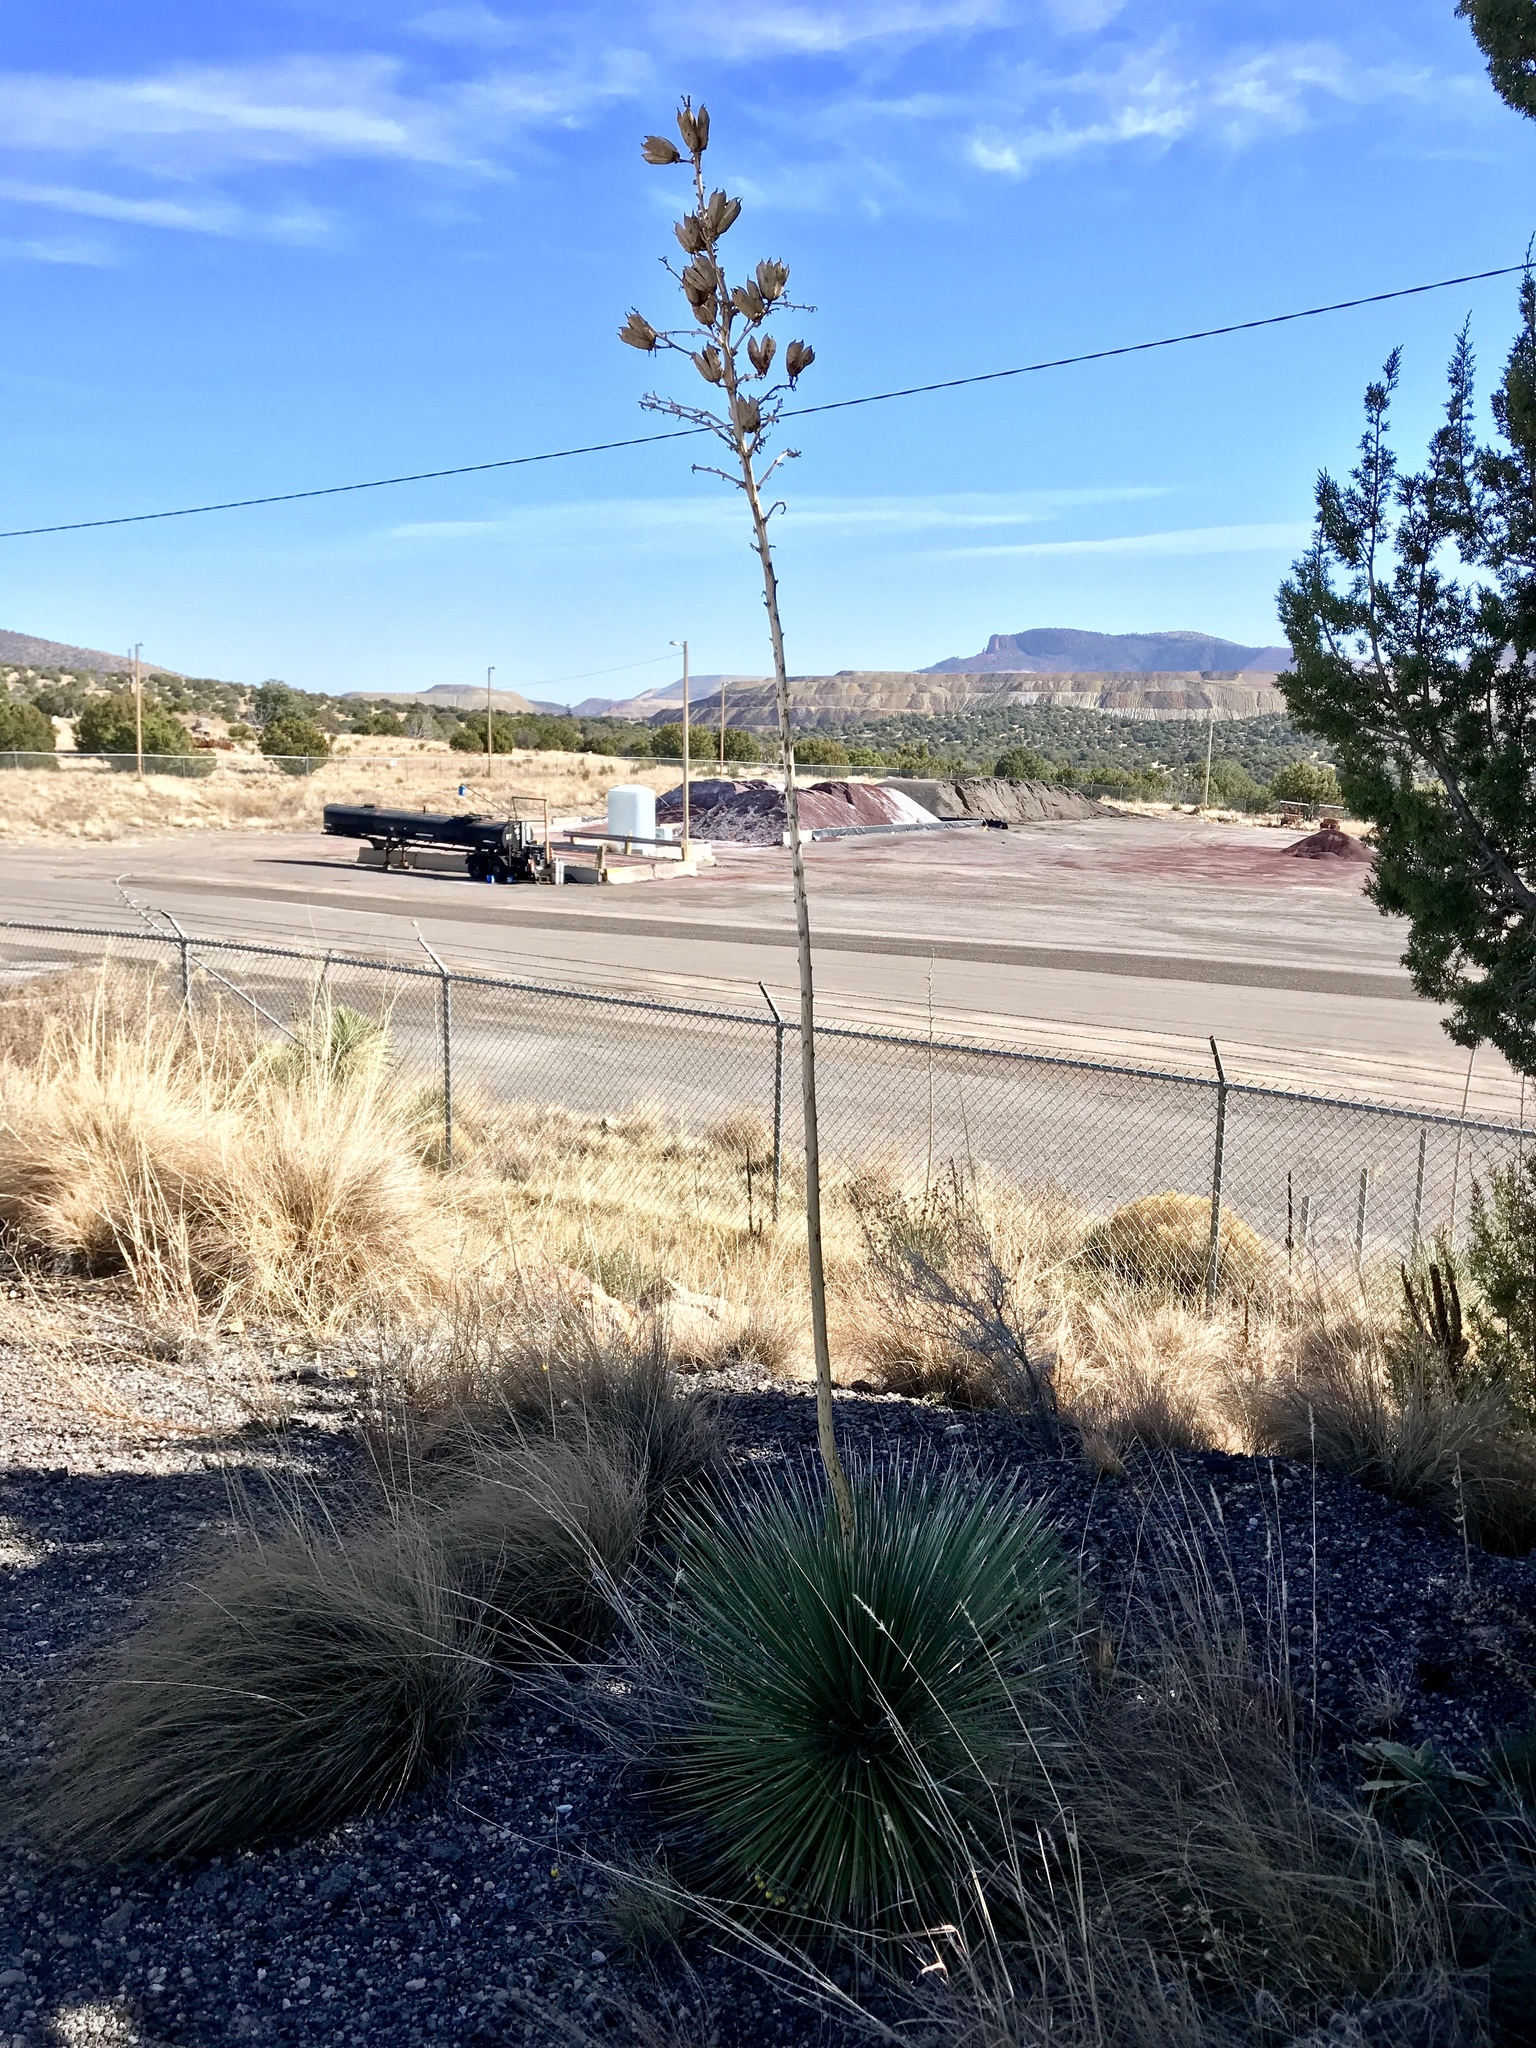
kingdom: Plantae
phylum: Tracheophyta
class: Liliopsida
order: Asparagales
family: Asparagaceae
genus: Yucca
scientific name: Yucca elata
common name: Palmella
